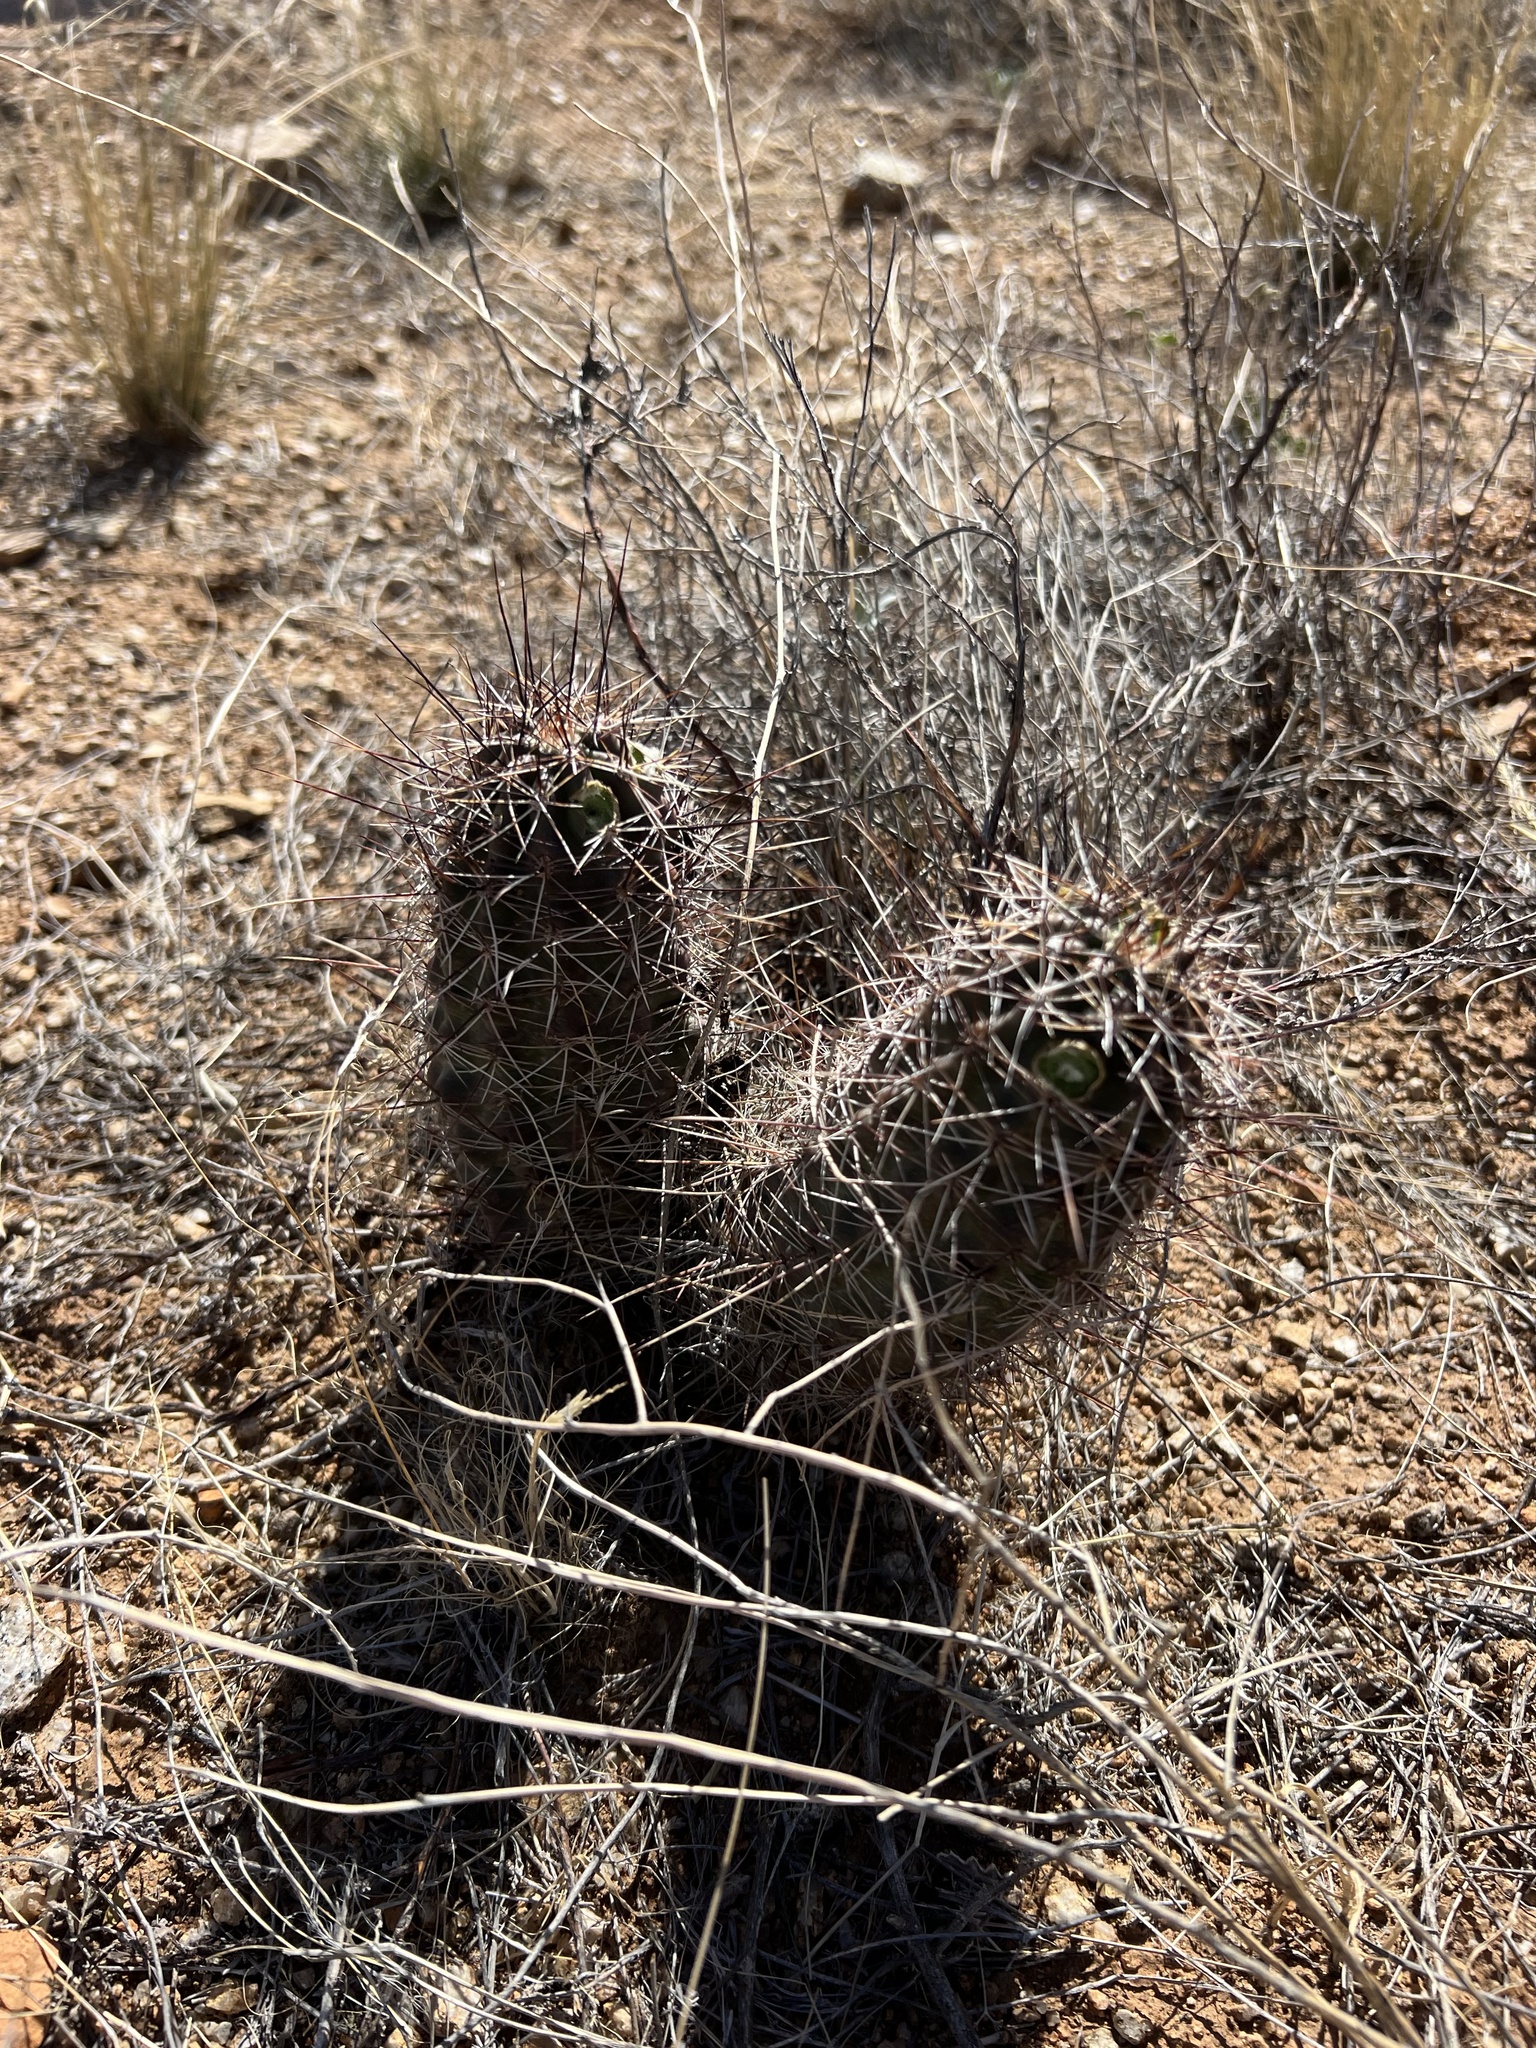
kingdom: Plantae
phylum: Tracheophyta
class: Magnoliopsida
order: Caryophyllales
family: Cactaceae
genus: Echinocereus
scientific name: Echinocereus fendleri
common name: Fendler's hedgehog cactus
